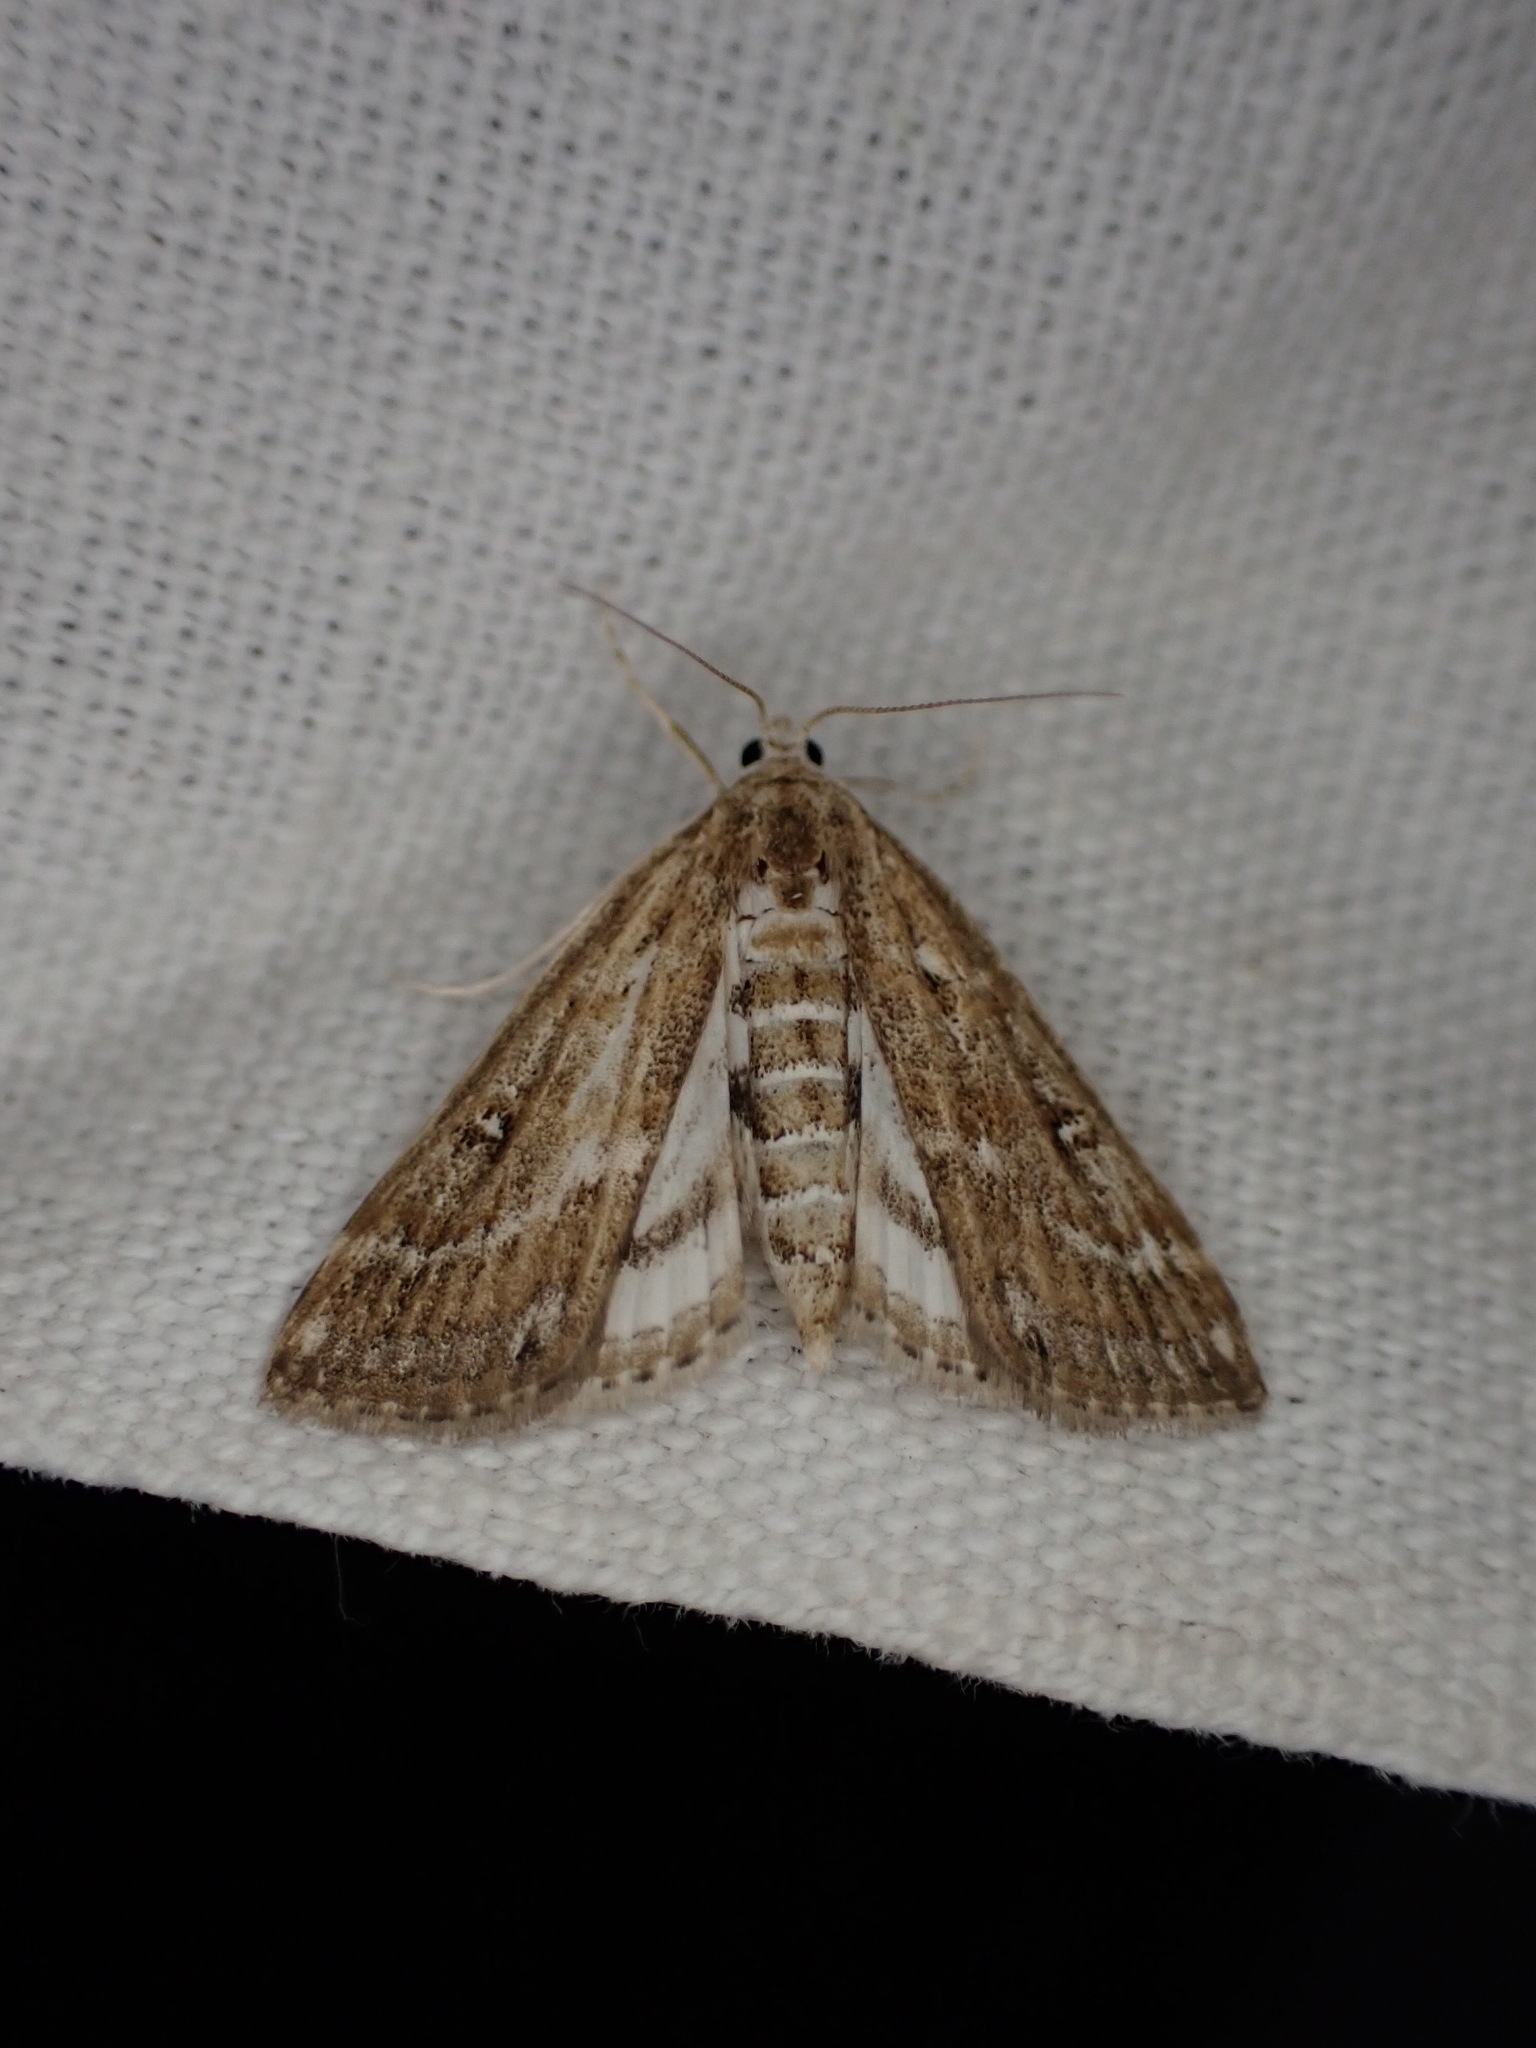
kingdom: Animalia
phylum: Arthropoda
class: Insecta
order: Lepidoptera
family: Crambidae
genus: Parapoynx
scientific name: Parapoynx stratiotata
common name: Ringed china-mark
